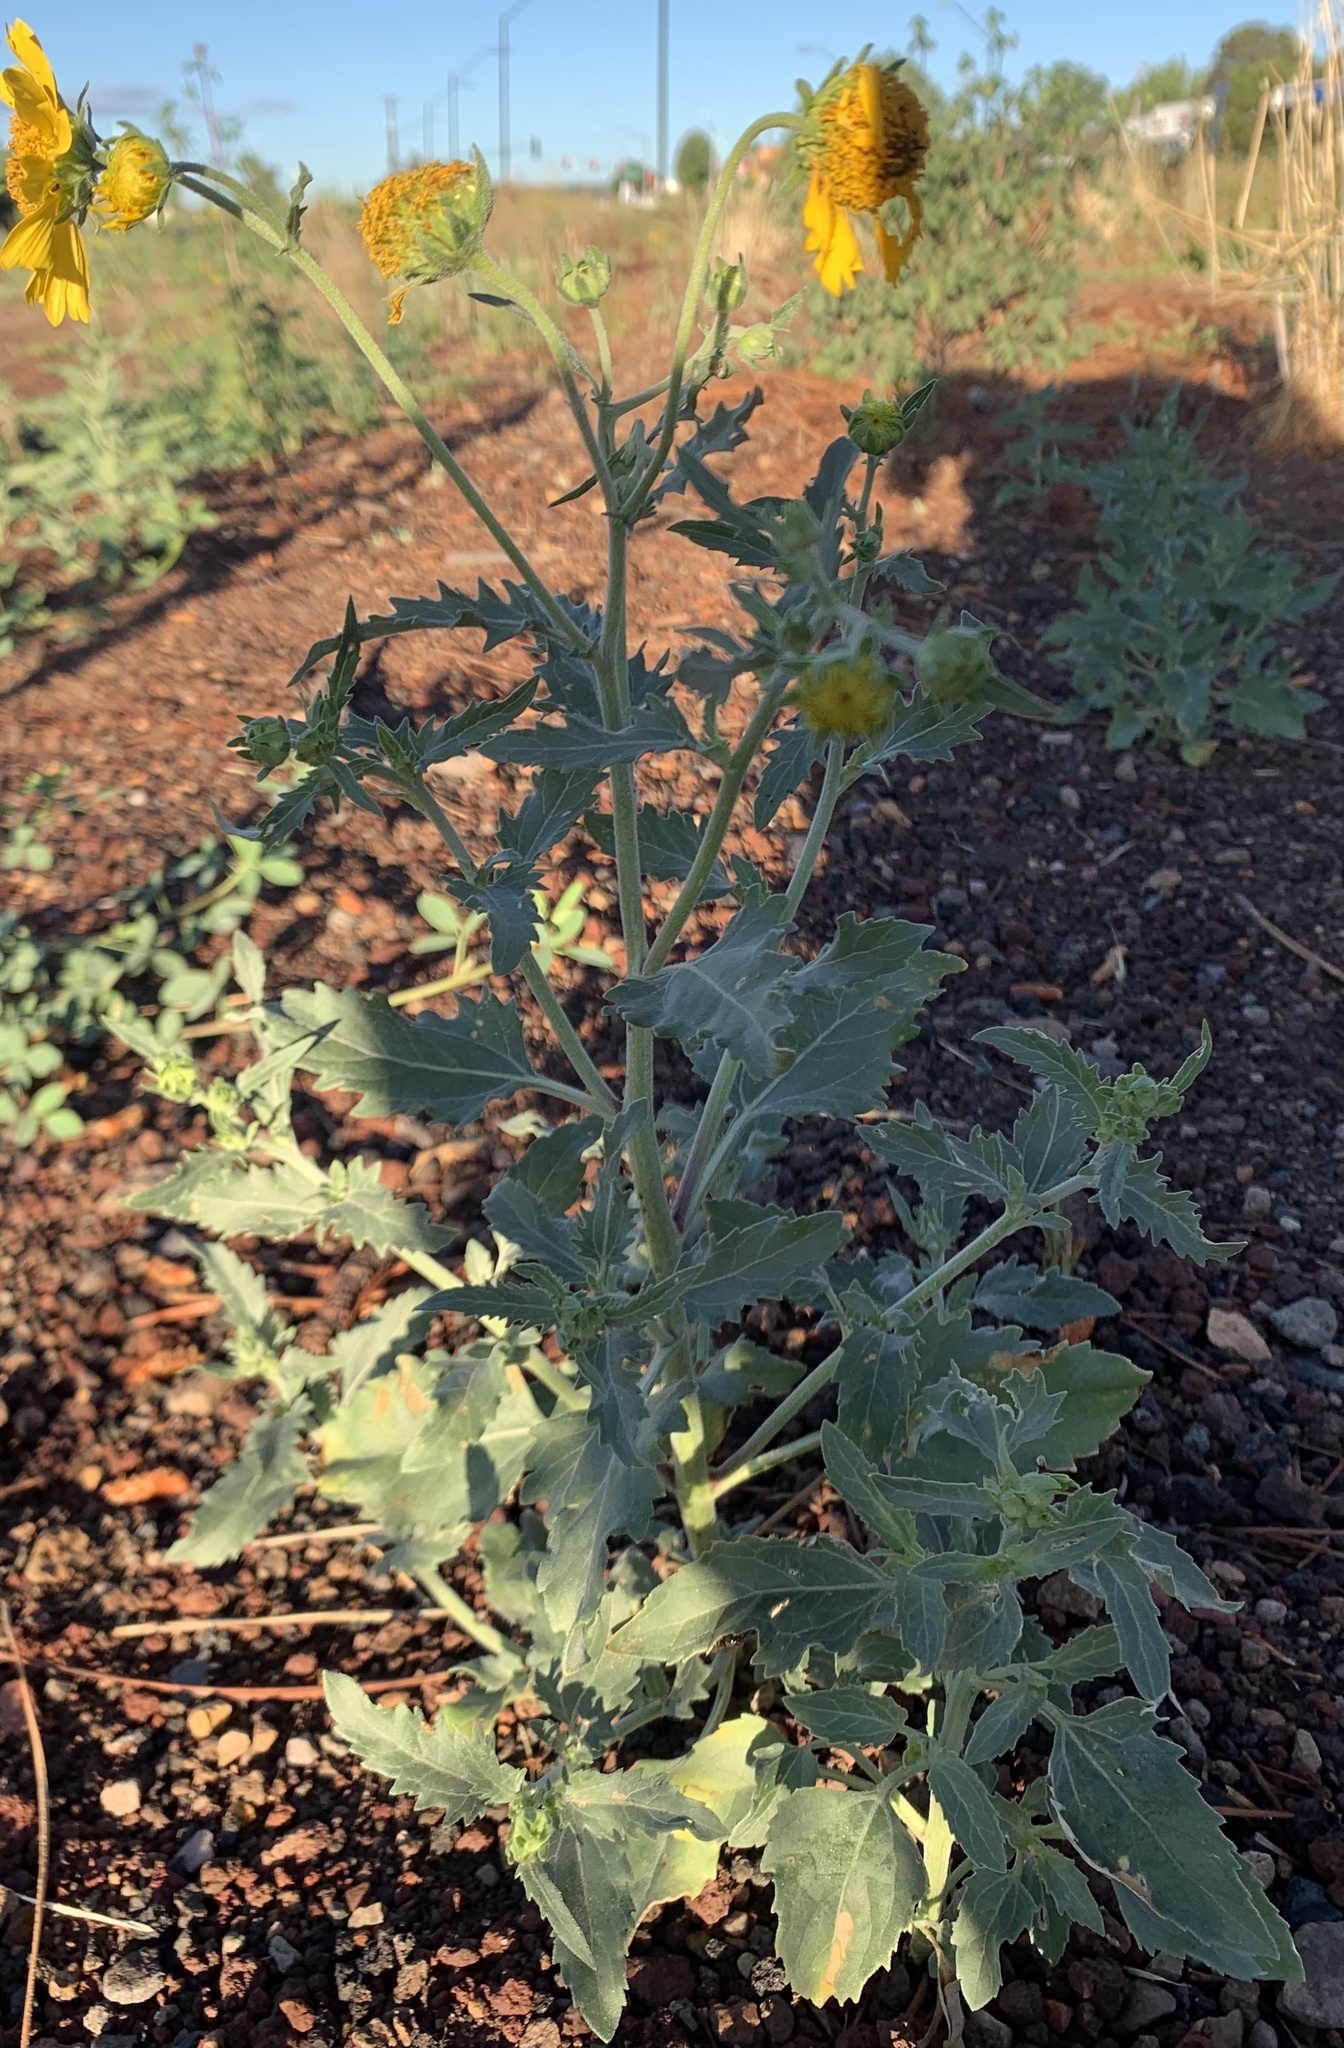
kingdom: Plantae
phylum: Tracheophyta
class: Magnoliopsida
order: Asterales
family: Asteraceae
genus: Verbesina
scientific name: Verbesina encelioides
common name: Golden crownbeard
